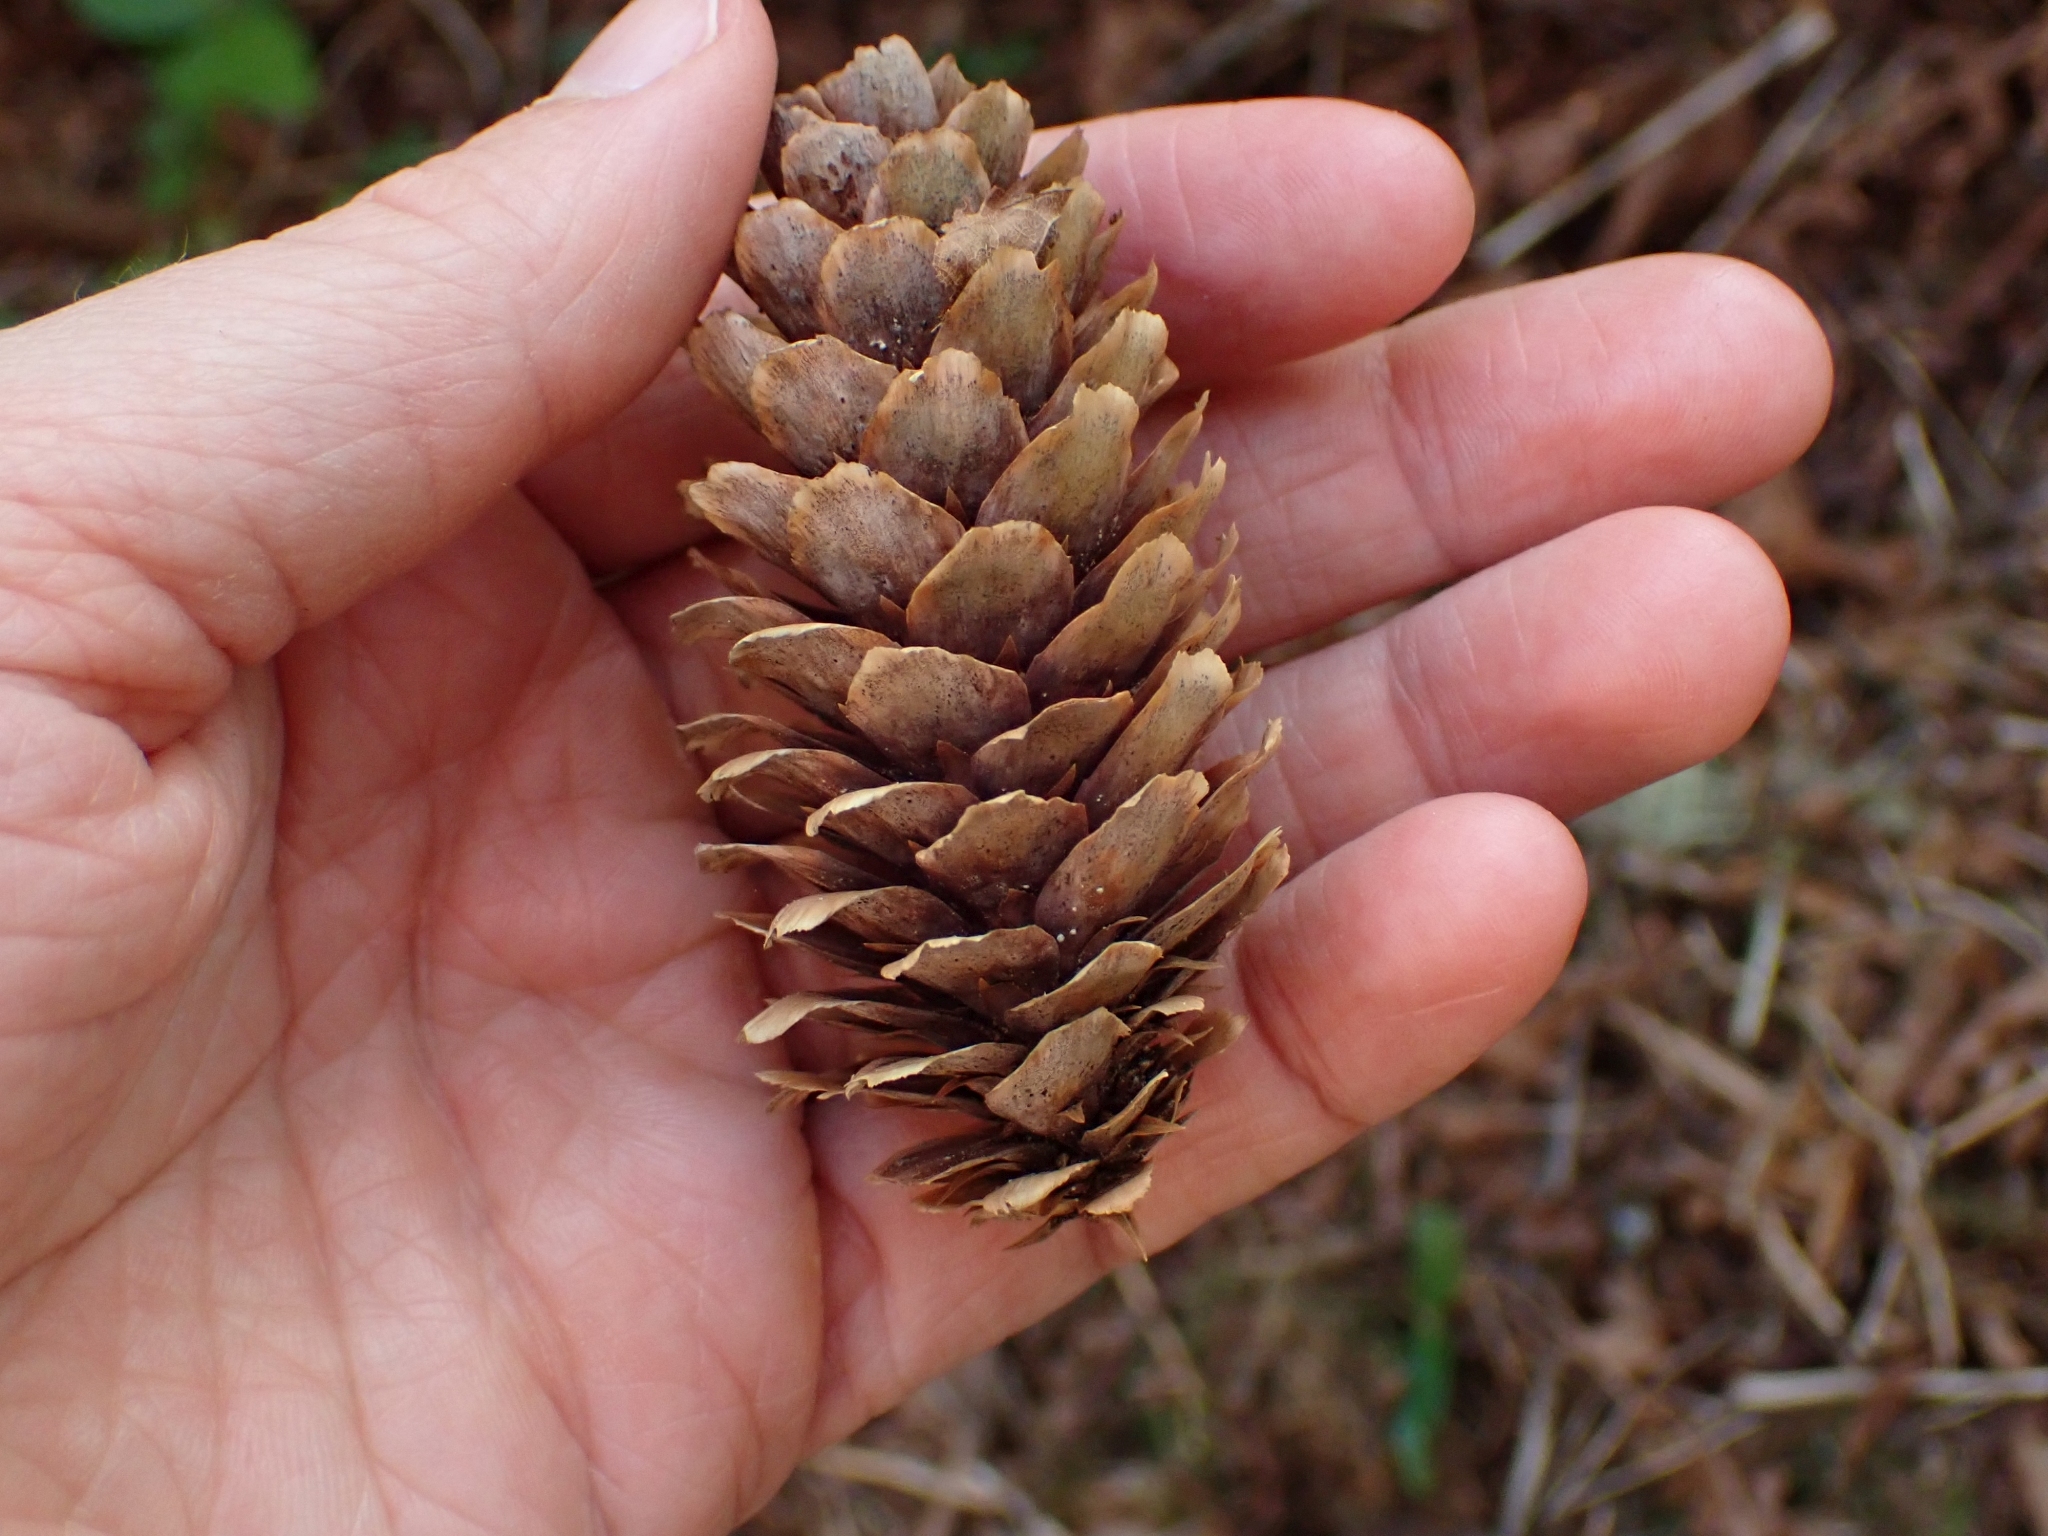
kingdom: Plantae
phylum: Tracheophyta
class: Pinopsida
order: Pinales
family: Pinaceae
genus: Picea
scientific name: Picea sitchensis
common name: Sitka spruce
